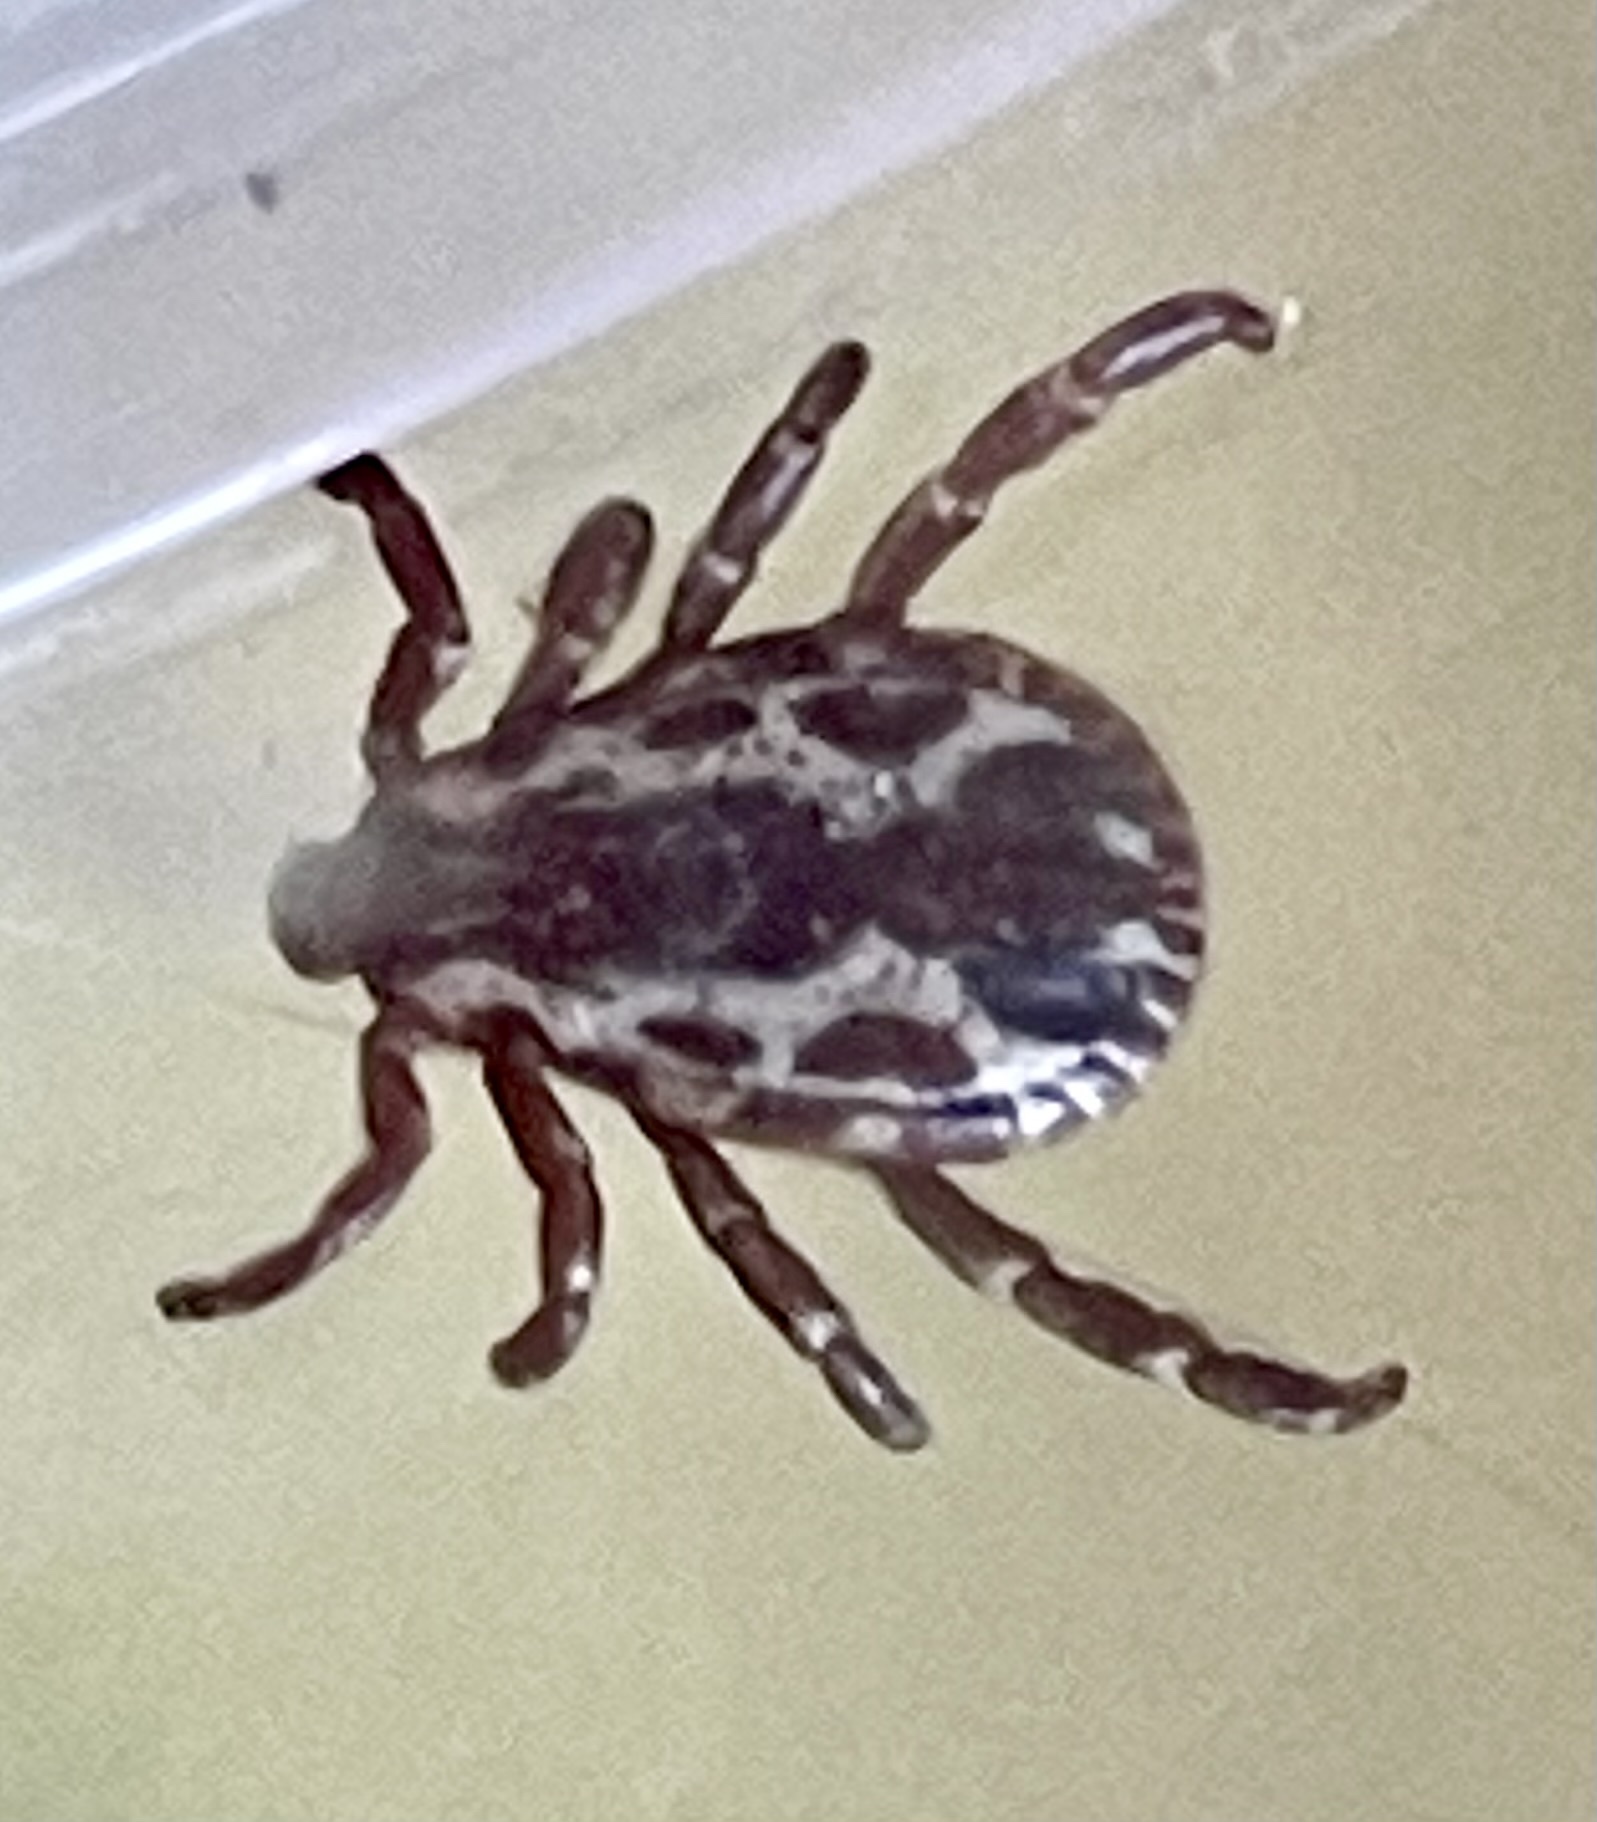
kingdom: Animalia
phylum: Arthropoda
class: Arachnida
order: Ixodida
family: Ixodidae
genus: Dermacentor
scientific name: Dermacentor variabilis
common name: American dog tick
